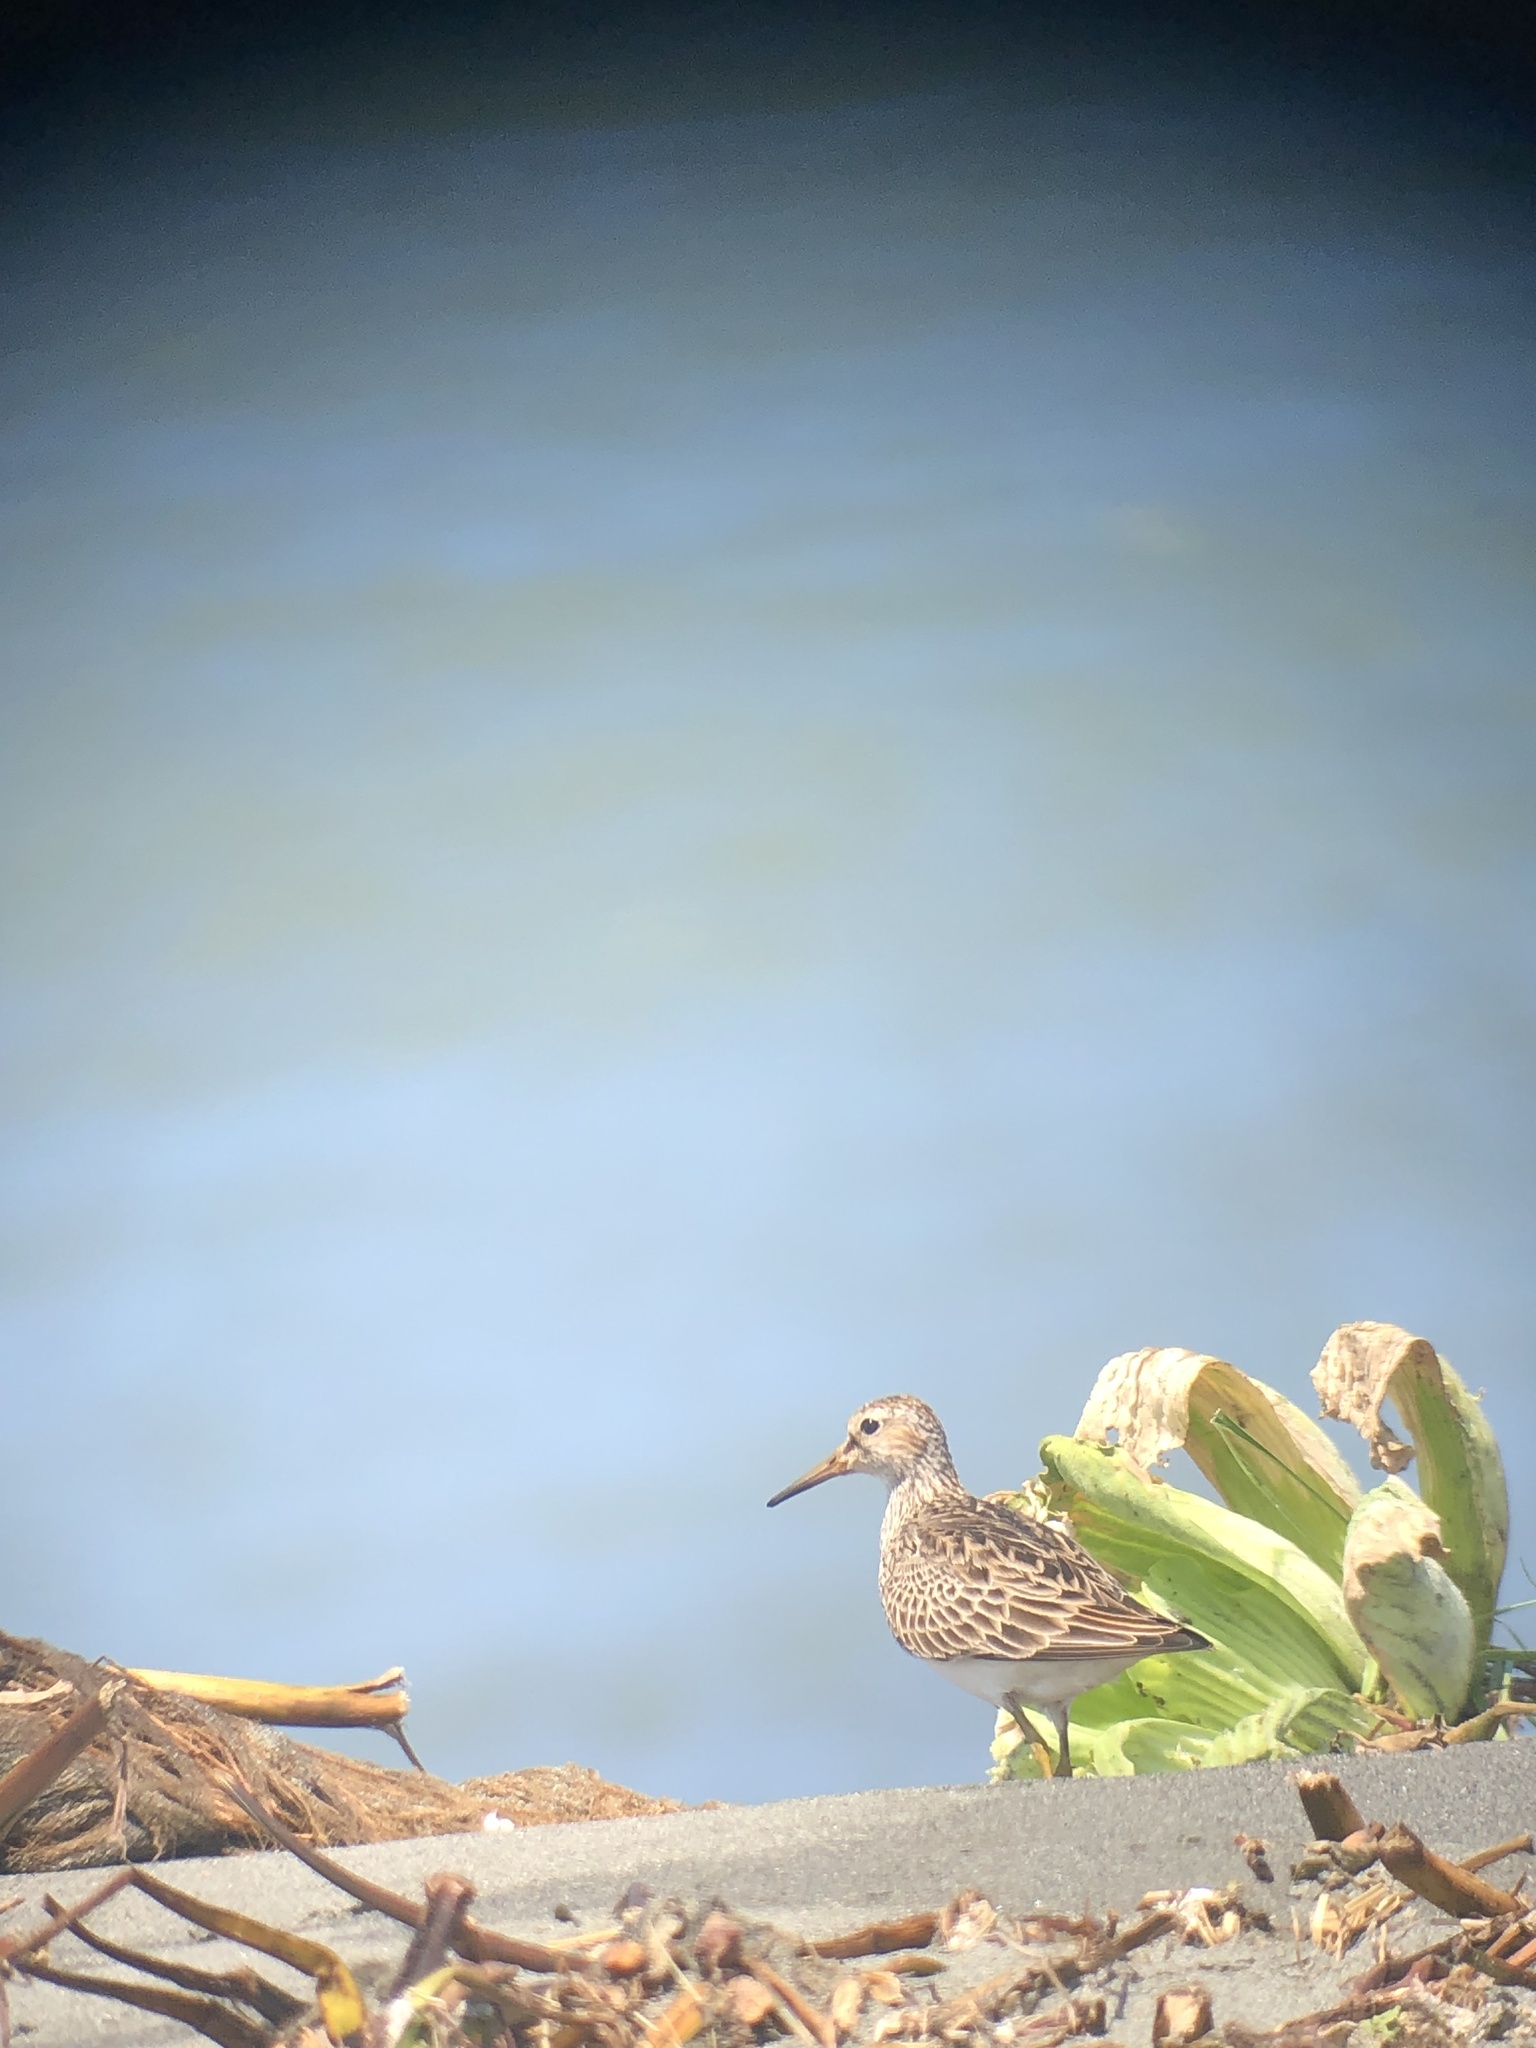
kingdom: Animalia
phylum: Chordata
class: Aves
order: Charadriiformes
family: Scolopacidae
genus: Calidris
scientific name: Calidris melanotos
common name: Pectoral sandpiper
